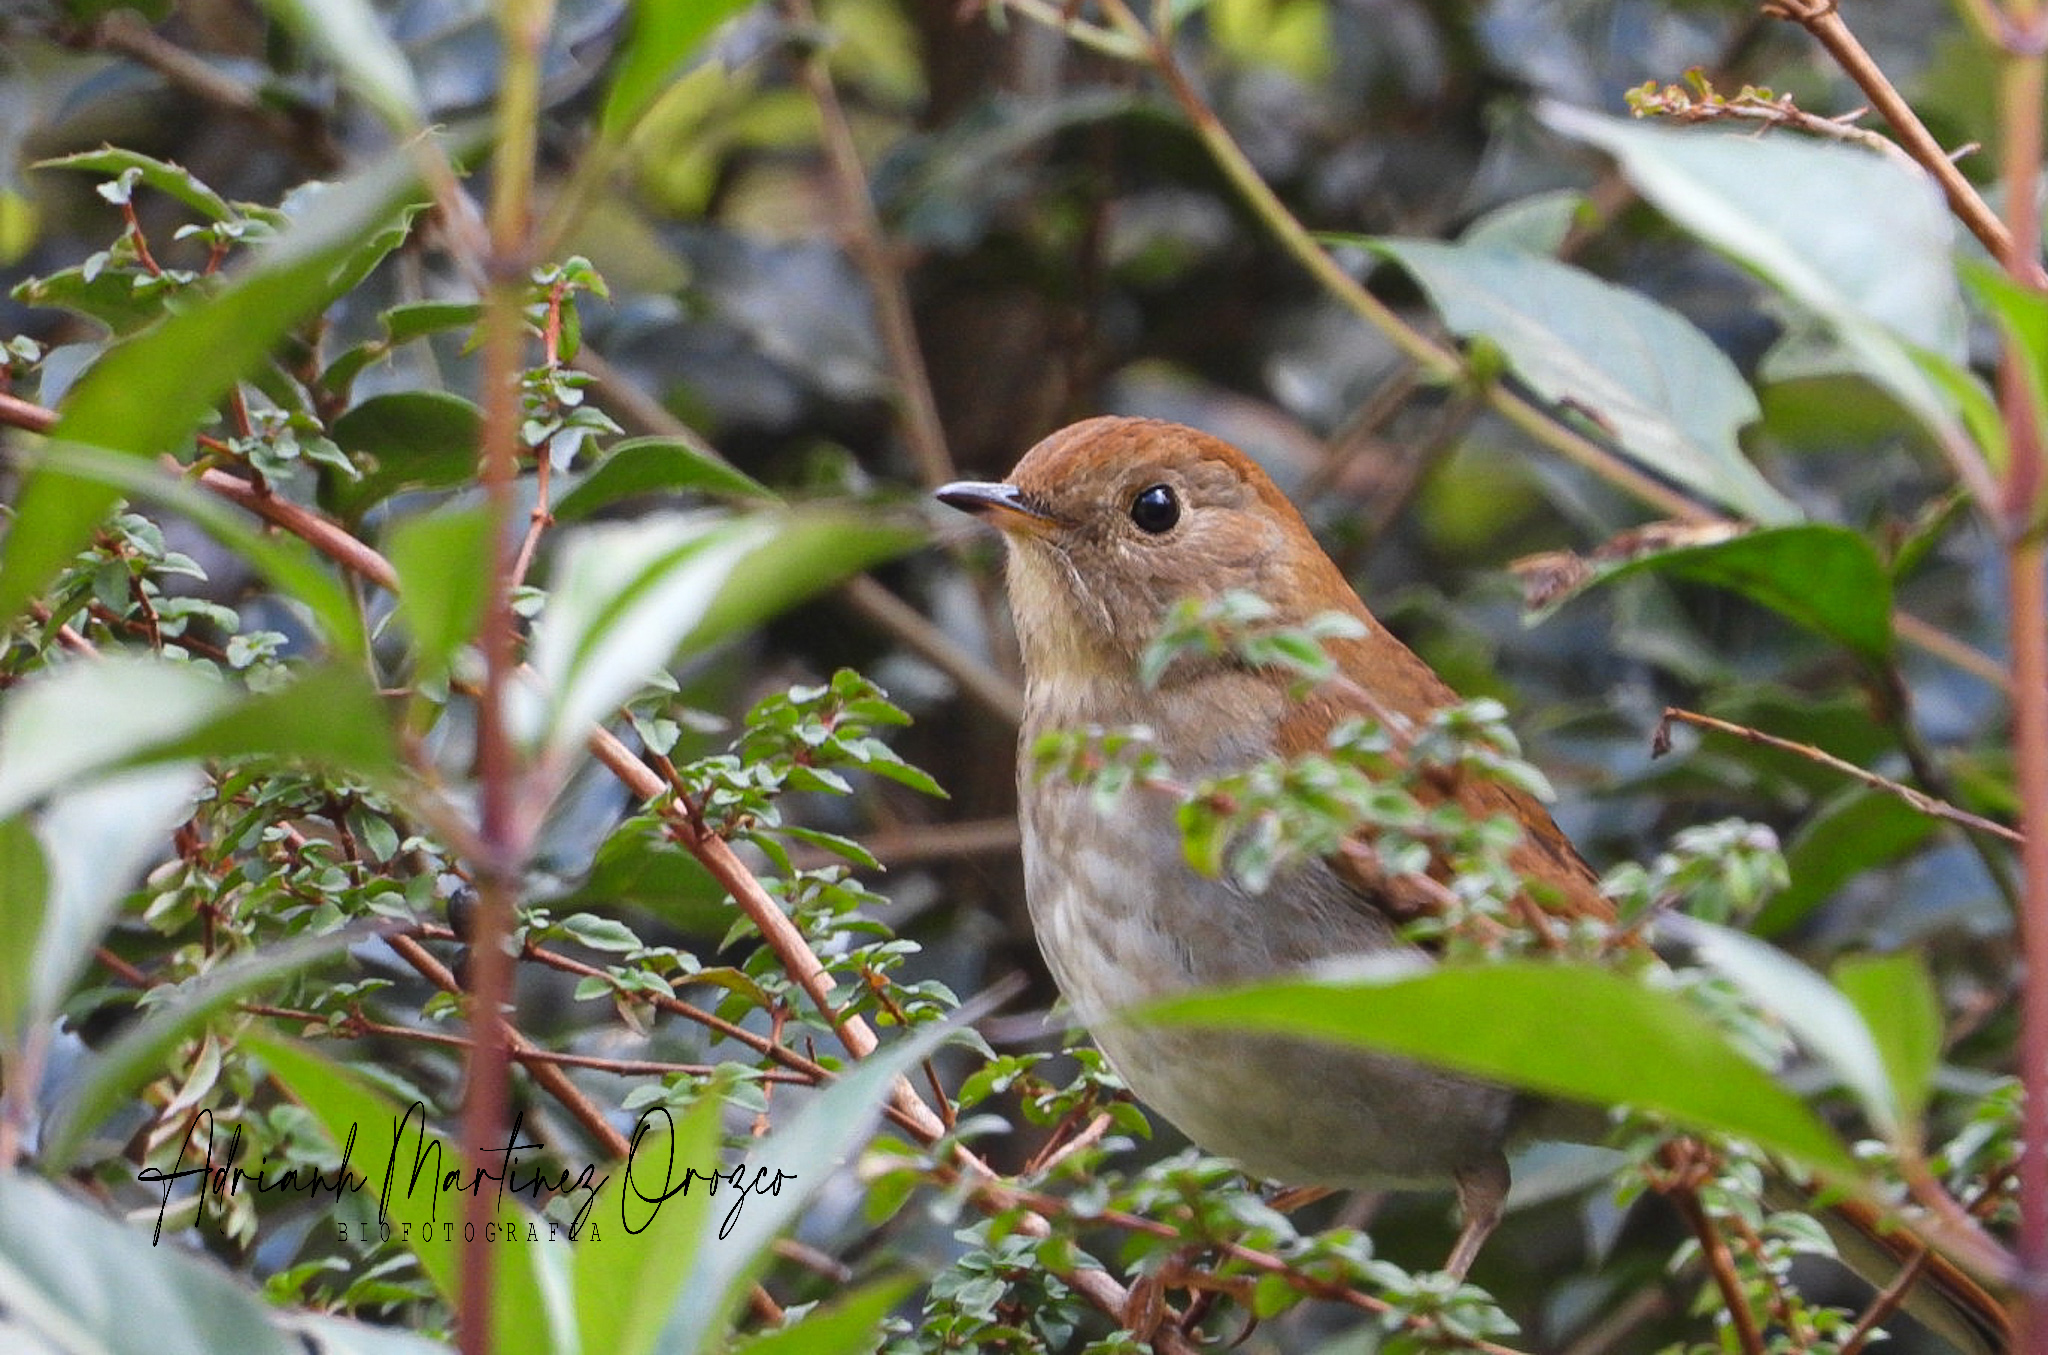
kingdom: Animalia
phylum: Chordata
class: Aves
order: Passeriformes
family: Turdidae
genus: Catharus
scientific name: Catharus occidentalis
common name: Russet nightingale-thrush
